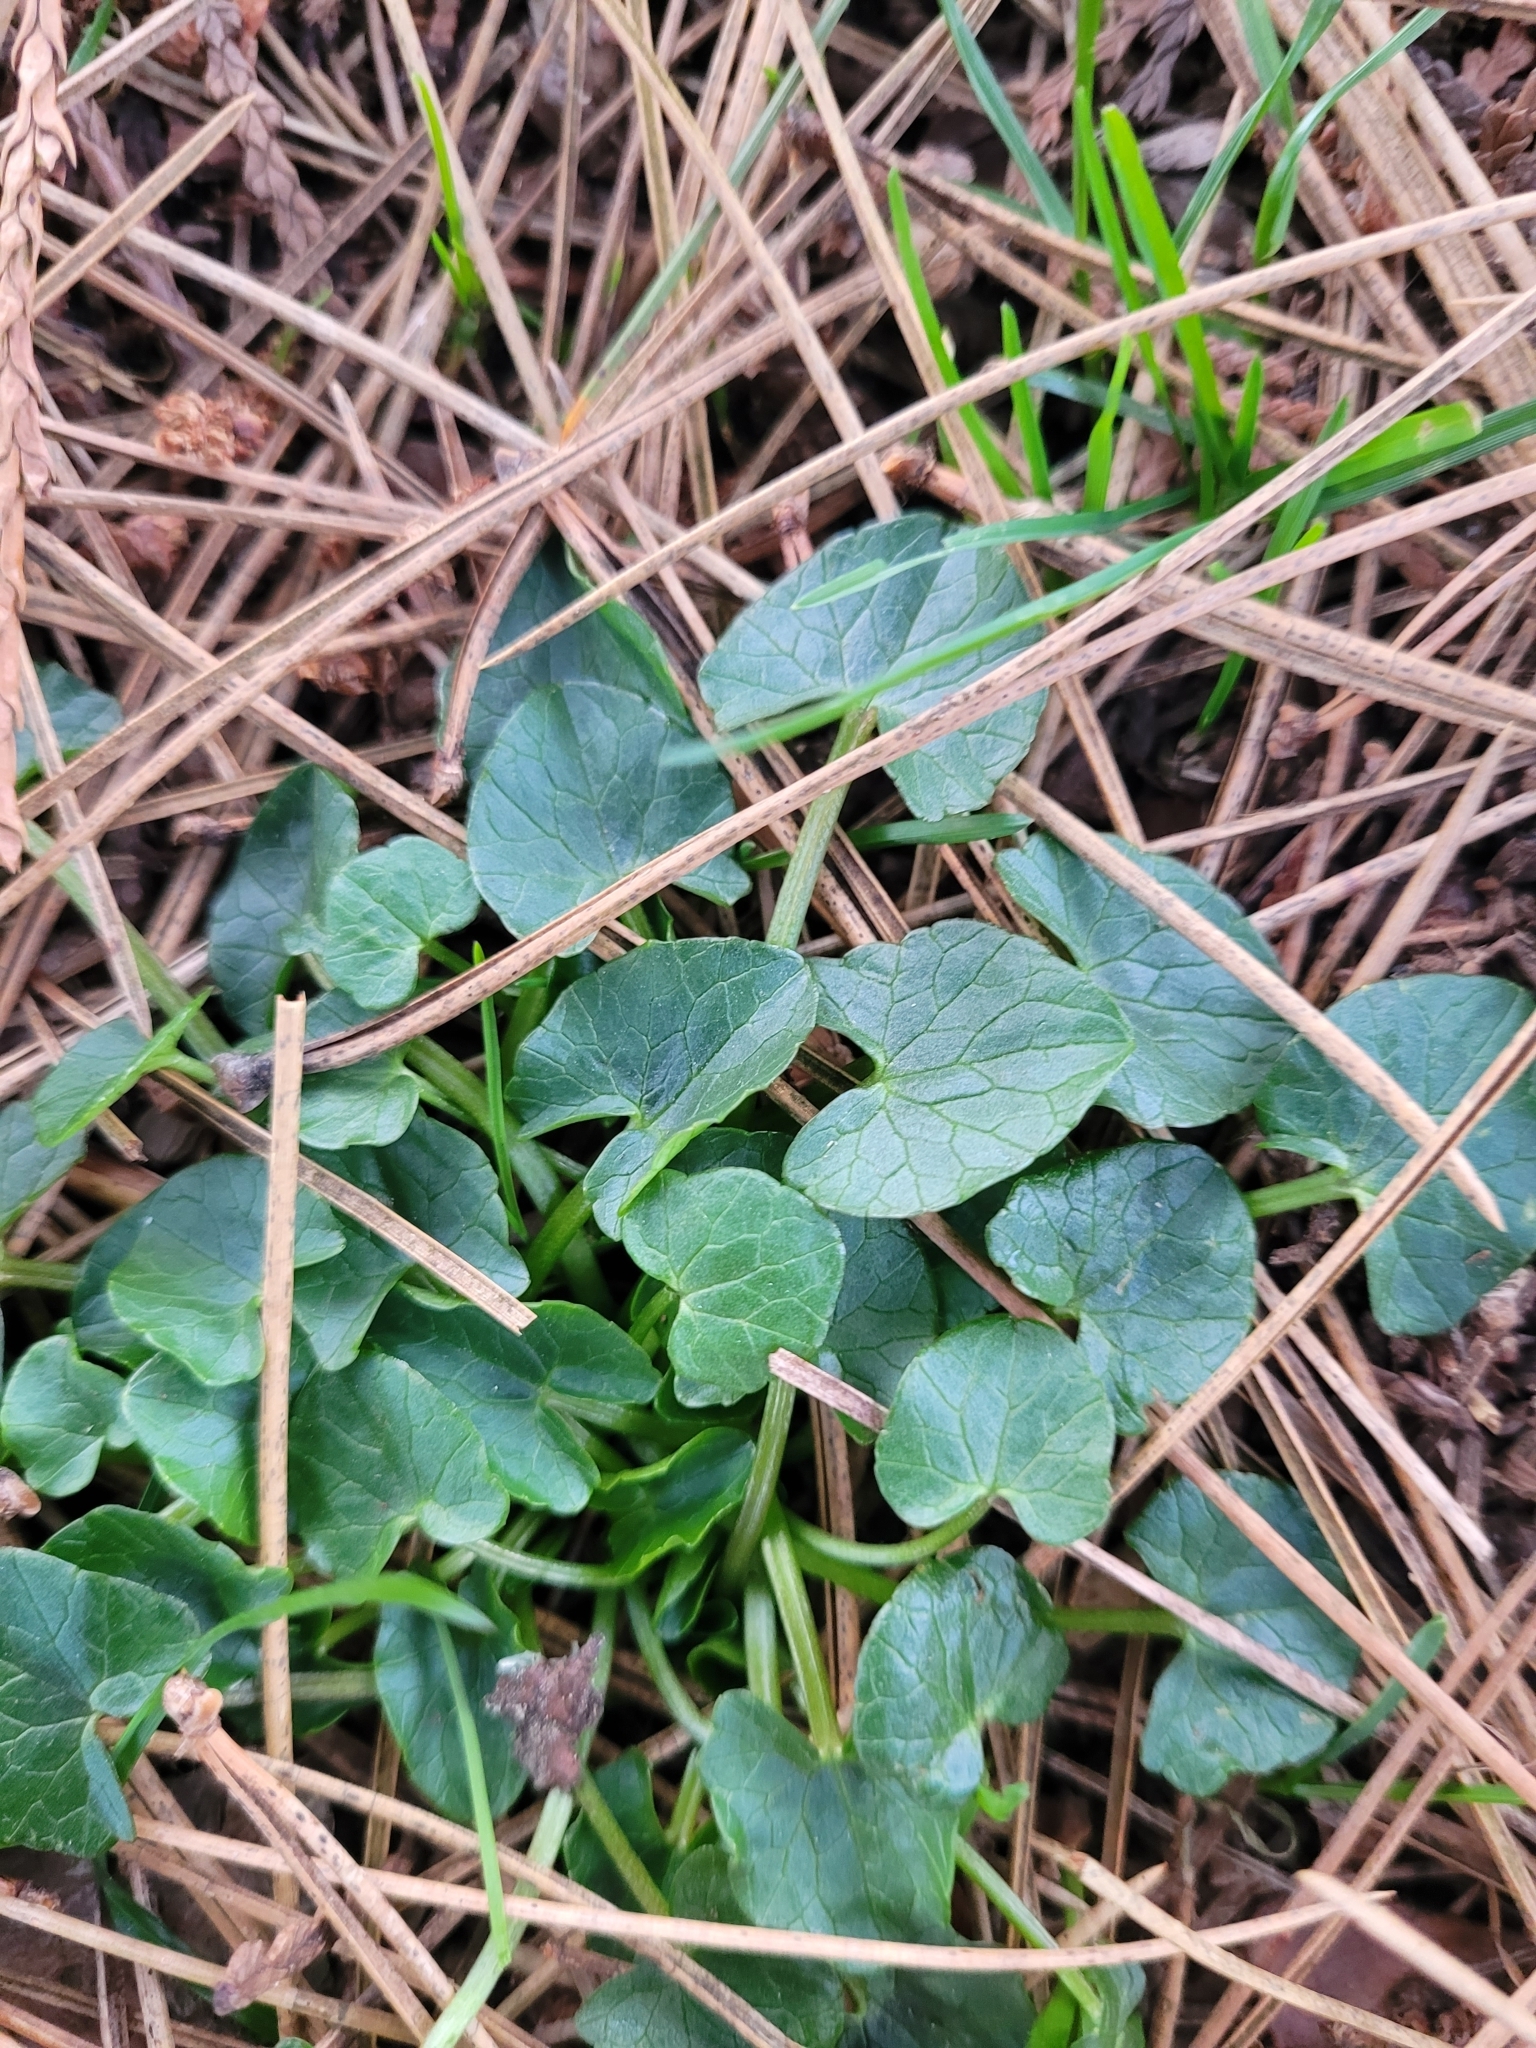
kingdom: Plantae
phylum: Tracheophyta
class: Magnoliopsida
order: Ranunculales
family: Ranunculaceae
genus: Ficaria
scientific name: Ficaria verna
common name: Lesser celandine
